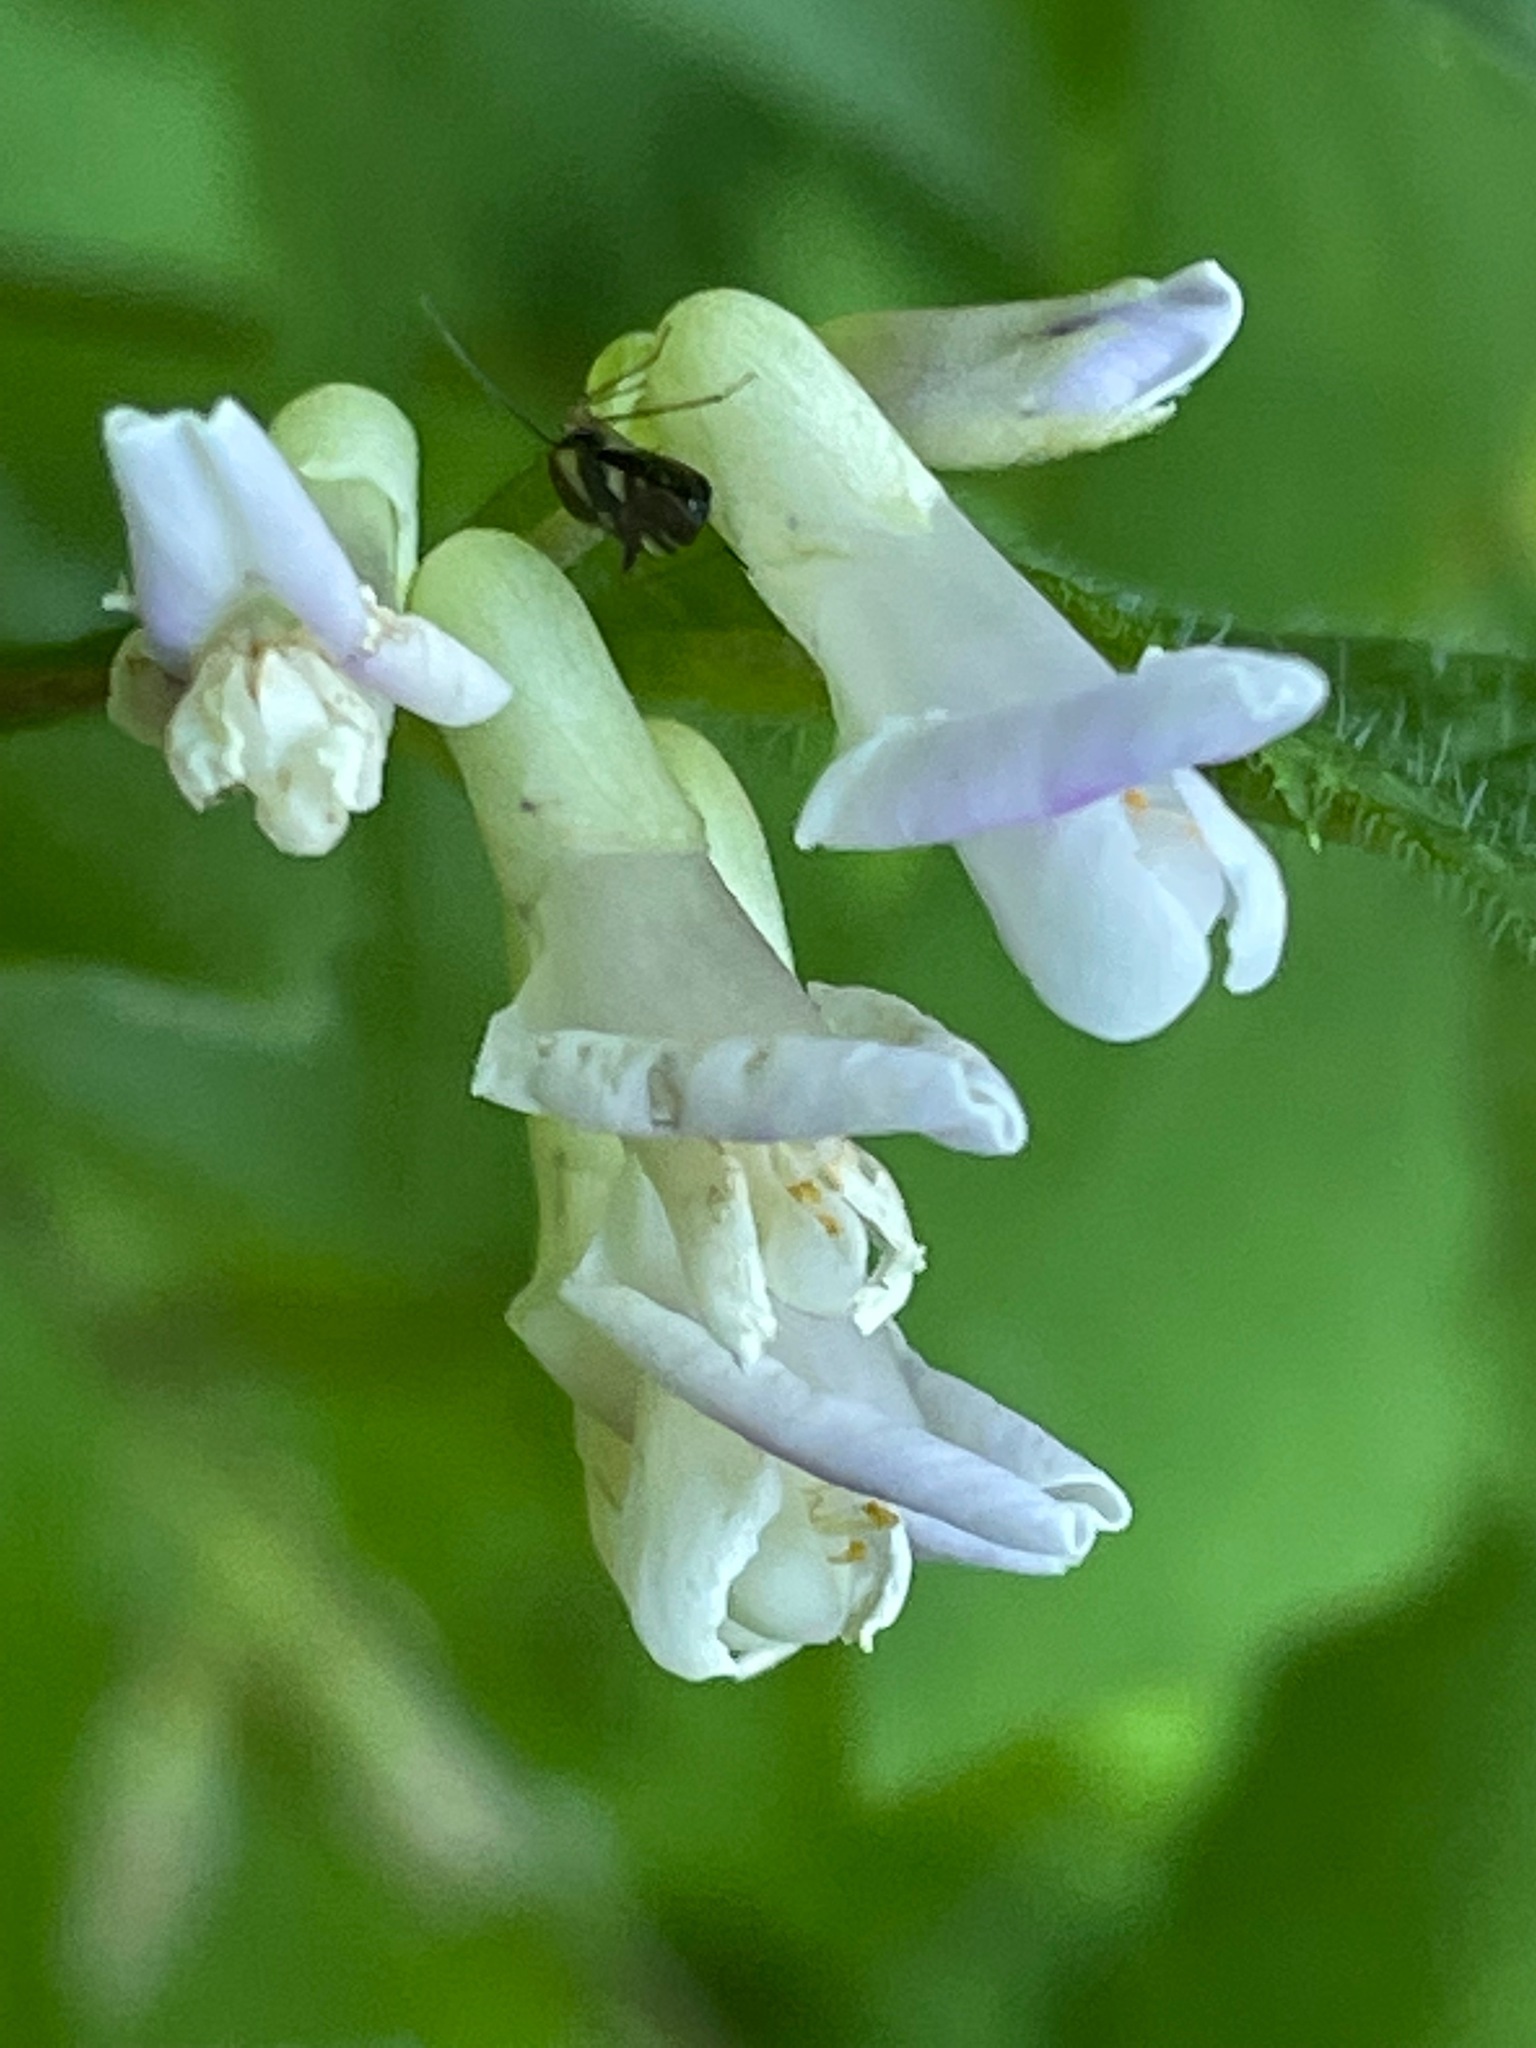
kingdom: Plantae
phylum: Tracheophyta
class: Magnoliopsida
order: Fabales
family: Fabaceae
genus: Amphicarpaea
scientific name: Amphicarpaea bracteata
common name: American hog peanut
